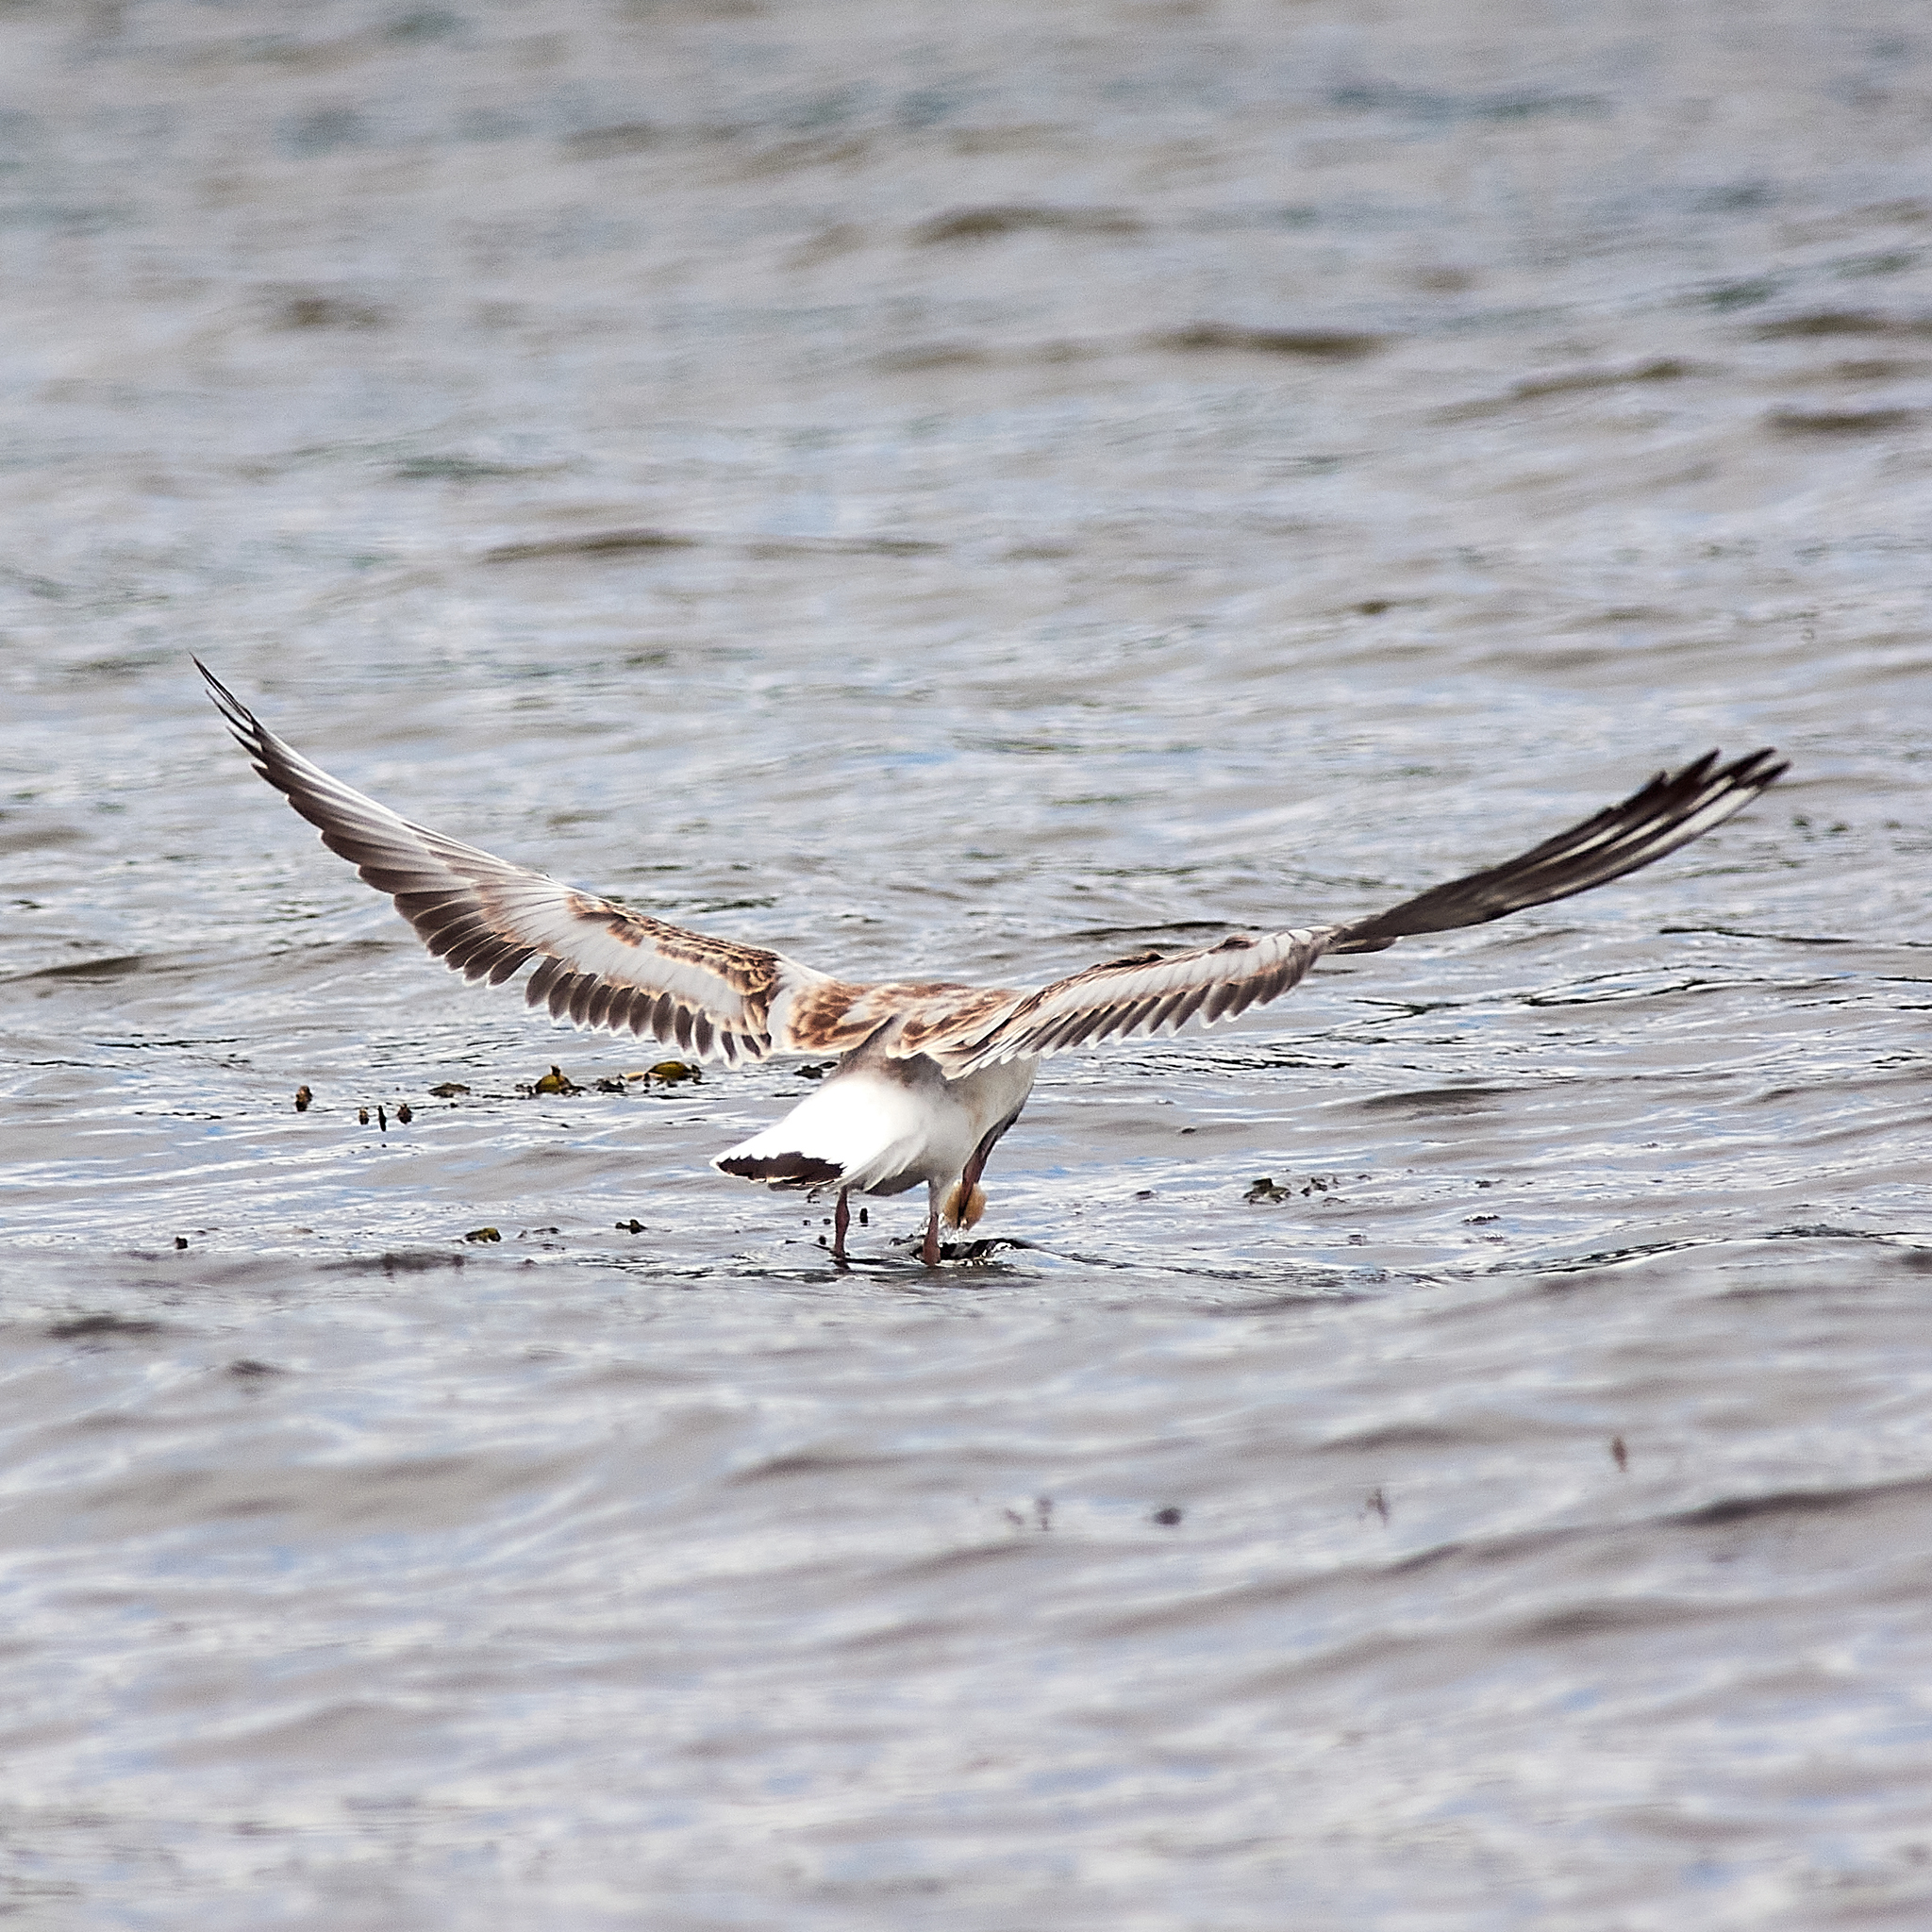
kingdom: Animalia
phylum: Chordata
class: Aves
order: Charadriiformes
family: Laridae
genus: Chroicocephalus
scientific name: Chroicocephalus ridibundus
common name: Black-headed gull
